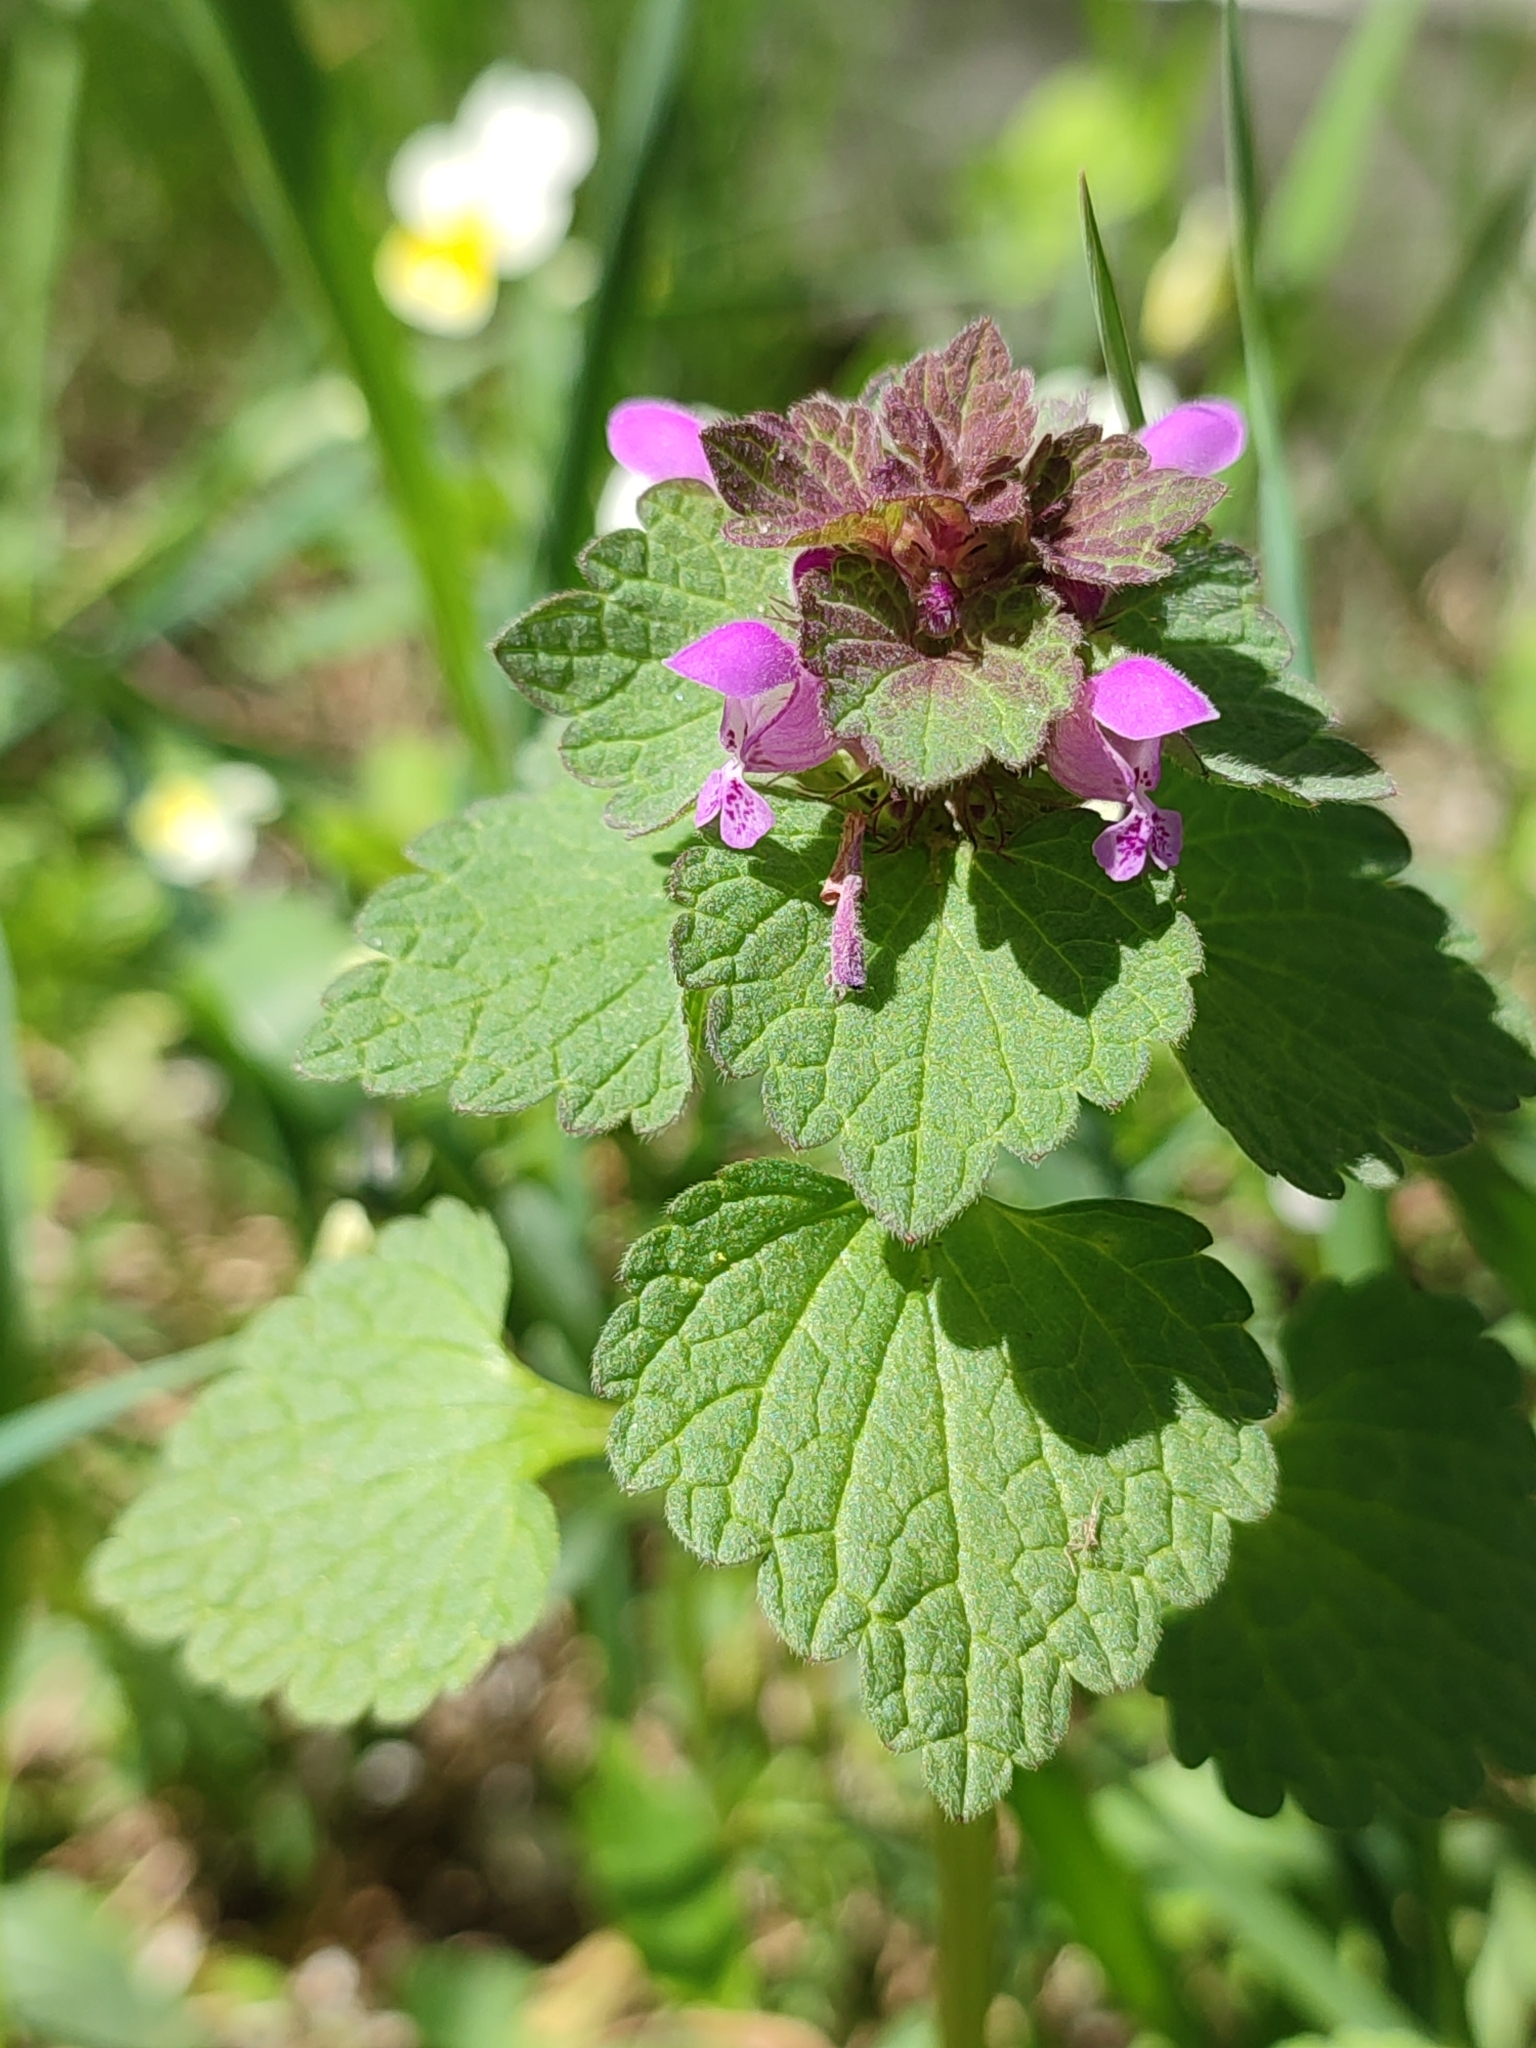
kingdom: Plantae
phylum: Tracheophyta
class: Magnoliopsida
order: Lamiales
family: Lamiaceae
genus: Lamium
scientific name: Lamium purpureum
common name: Red dead-nettle
